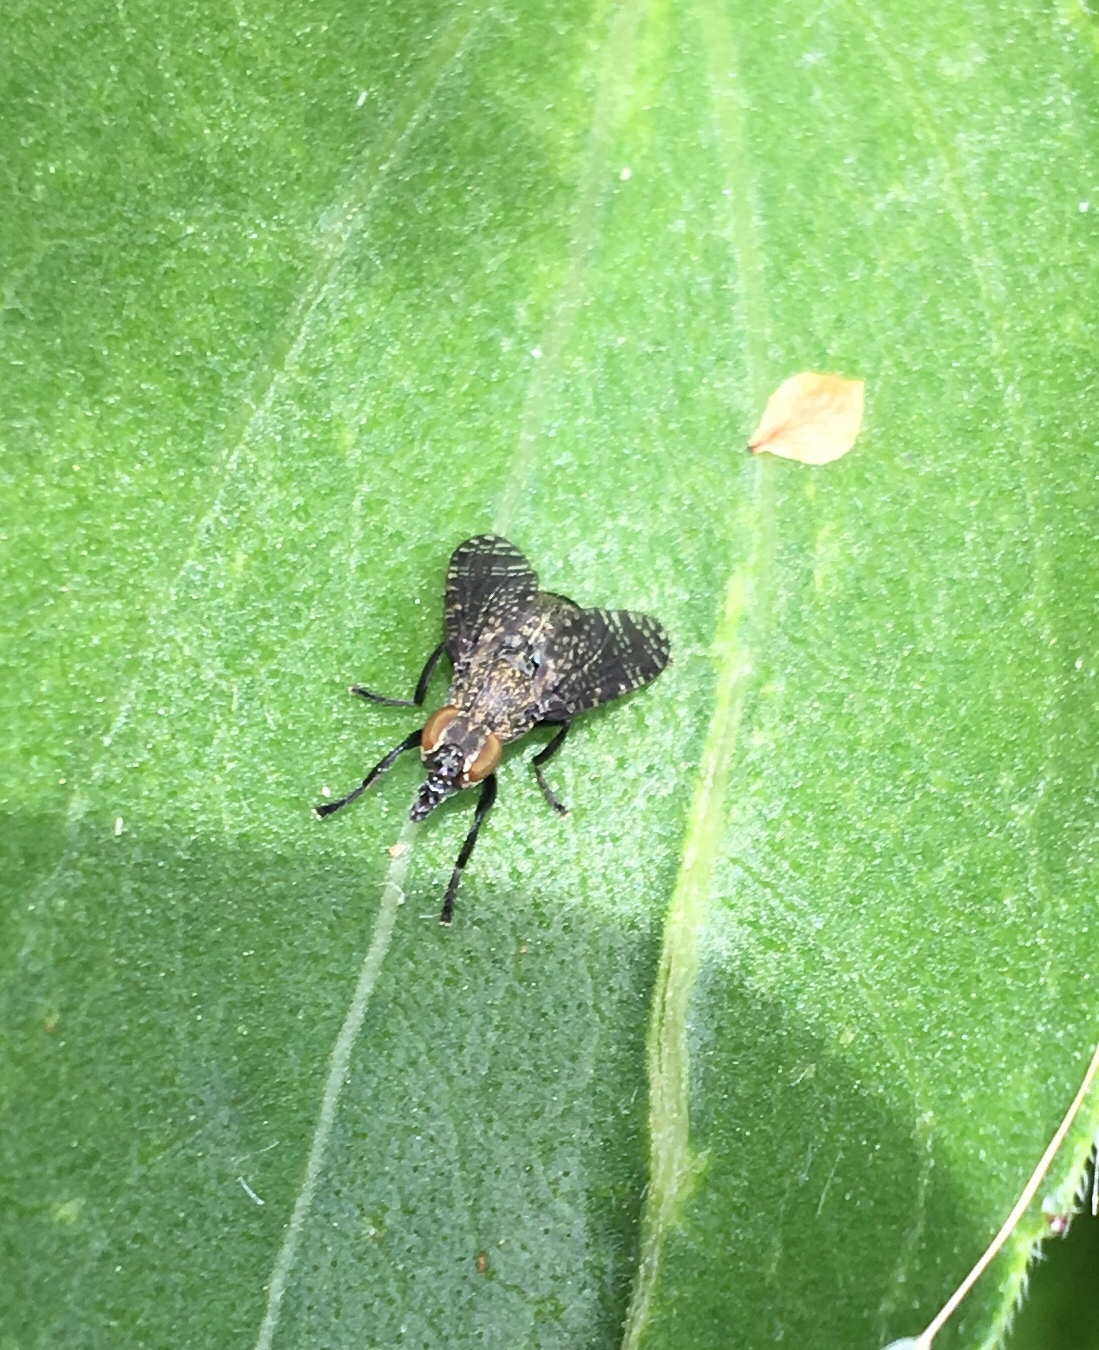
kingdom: Animalia
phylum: Arthropoda
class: Insecta
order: Diptera
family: Platystomatidae
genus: Platystoma
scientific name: Platystoma seminationis
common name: Fly
